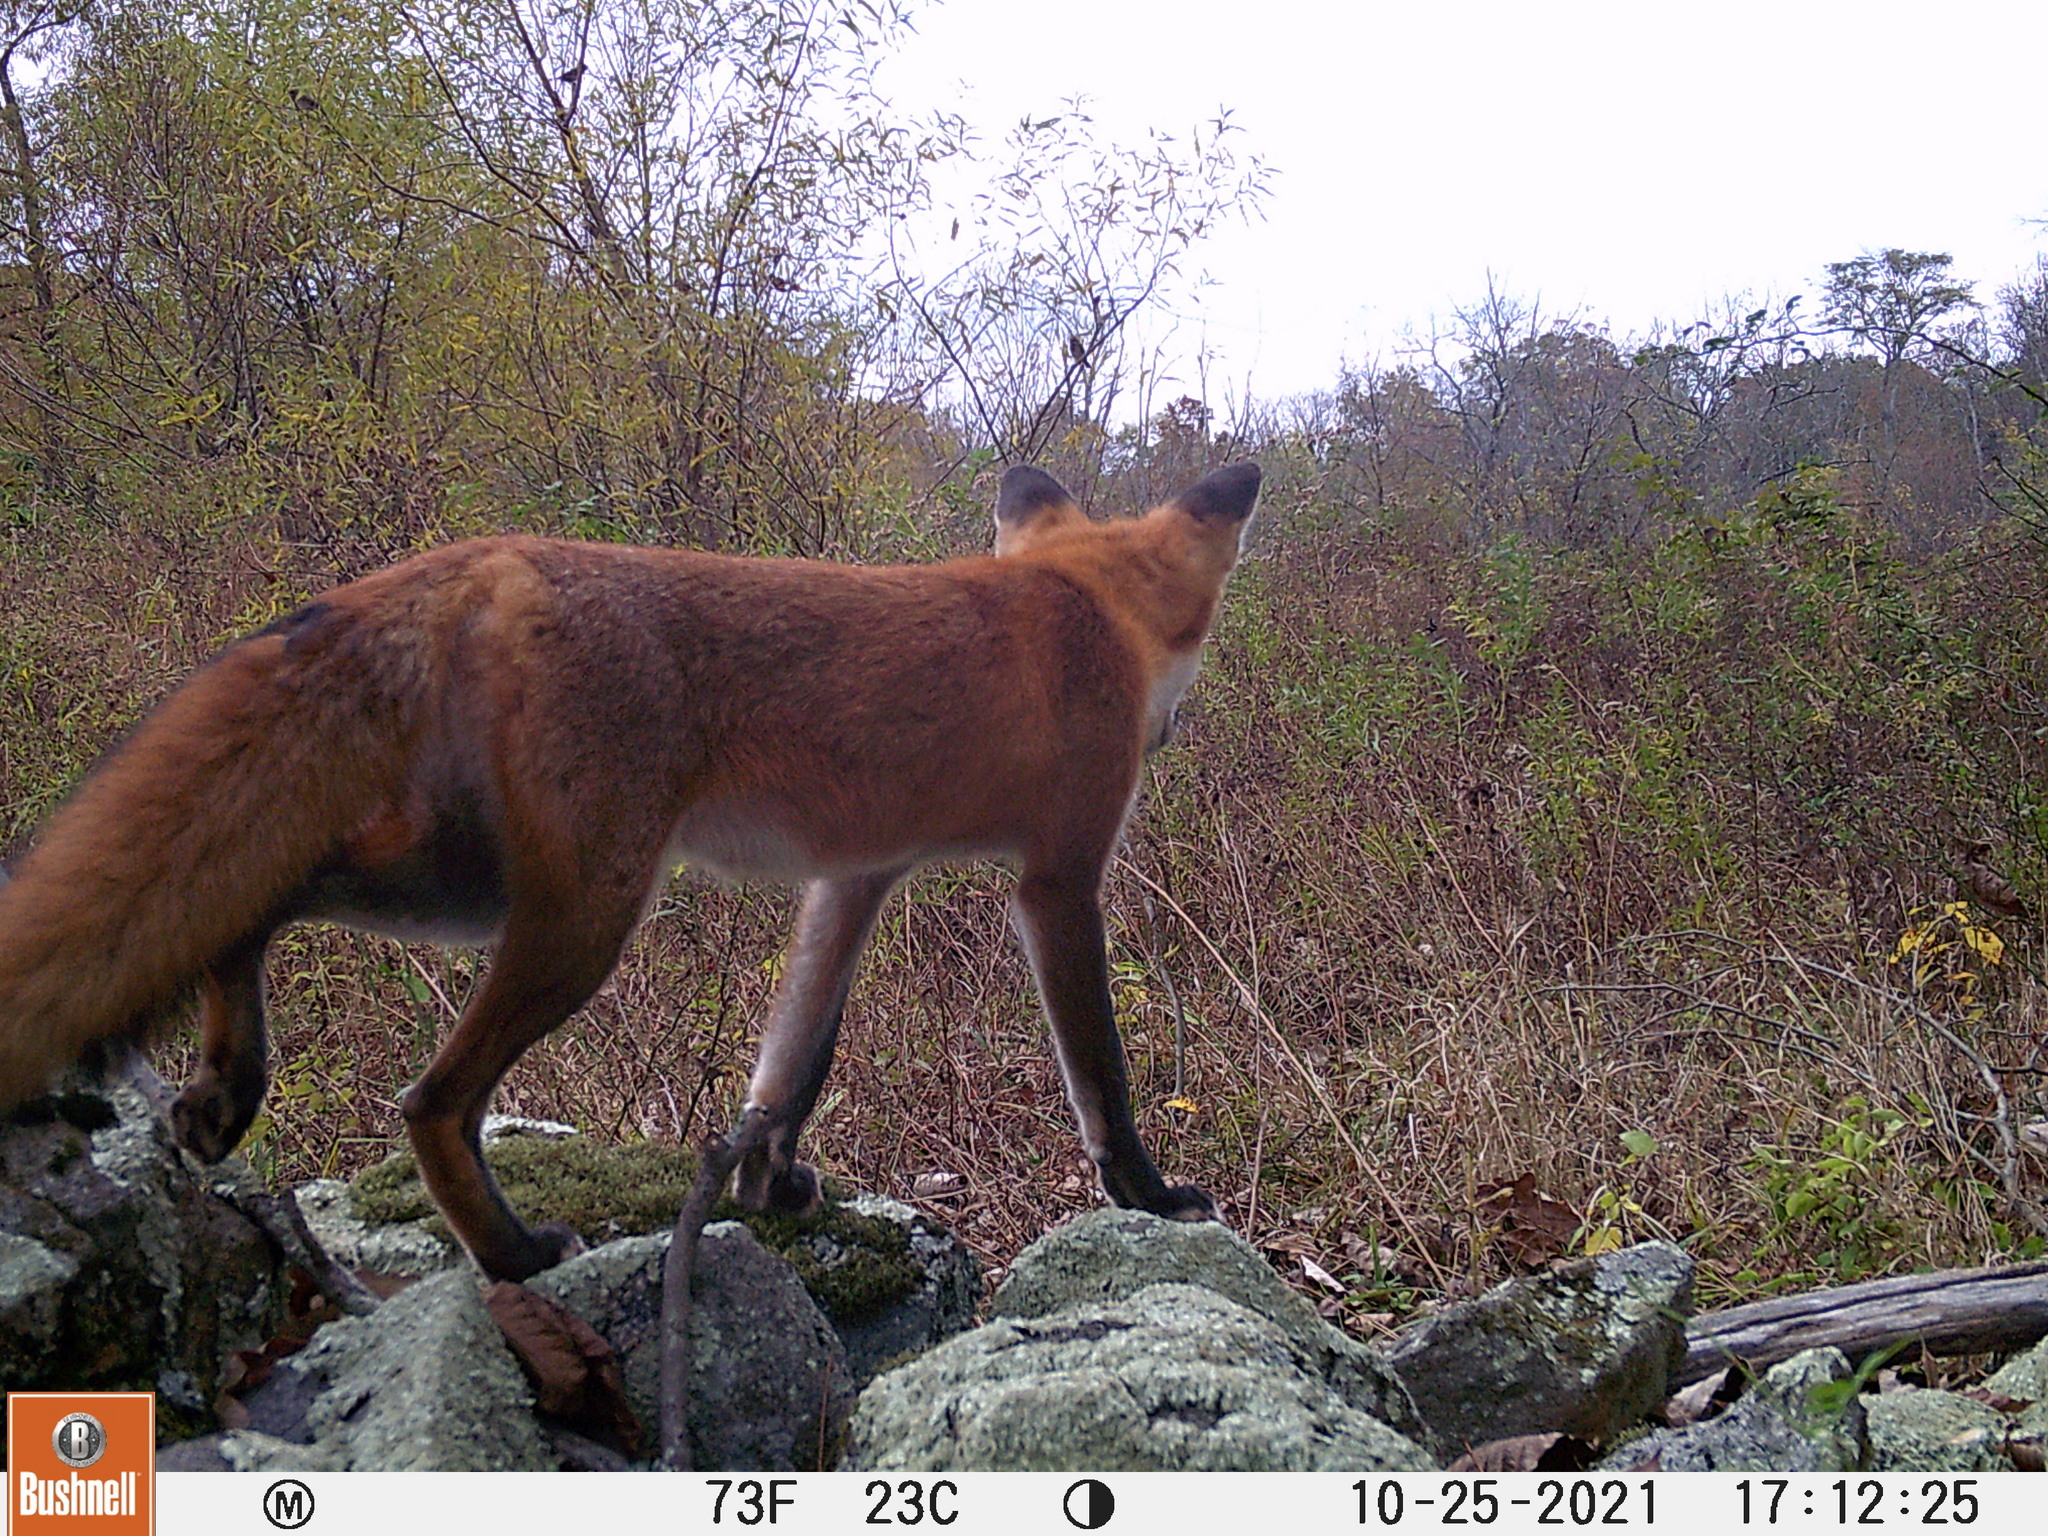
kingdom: Animalia
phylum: Chordata
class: Mammalia
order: Carnivora
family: Canidae
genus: Vulpes
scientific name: Vulpes vulpes
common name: Red fox
